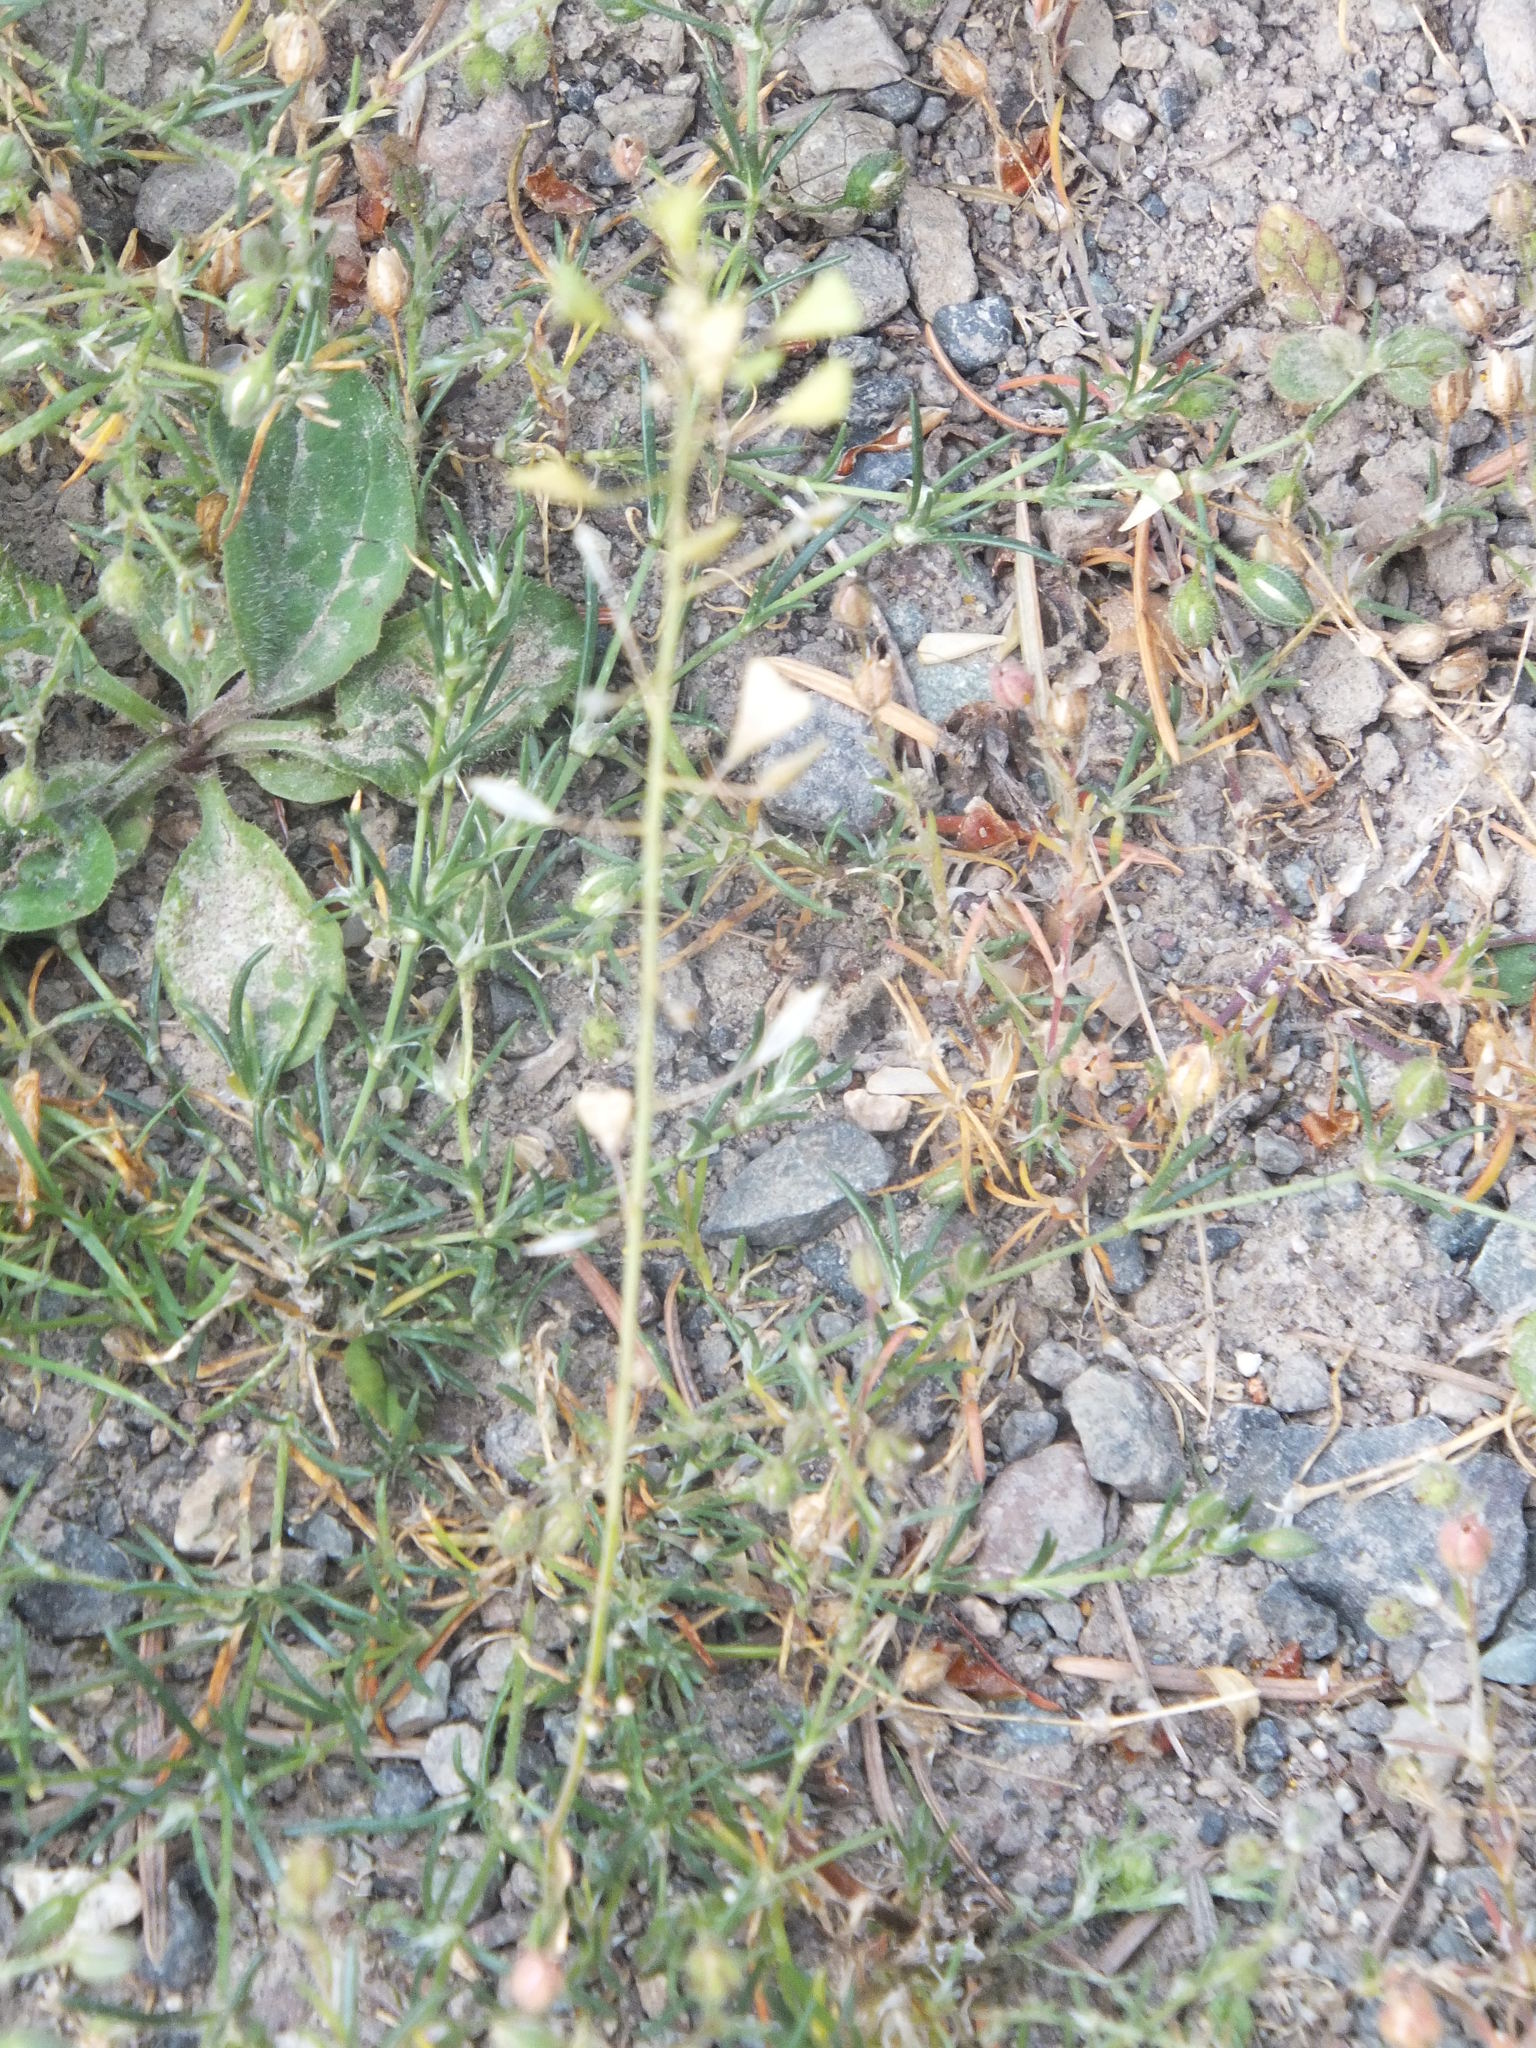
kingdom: Plantae
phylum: Tracheophyta
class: Magnoliopsida
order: Brassicales
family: Brassicaceae
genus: Capsella
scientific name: Capsella bursa-pastoris
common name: Shepherd's purse
